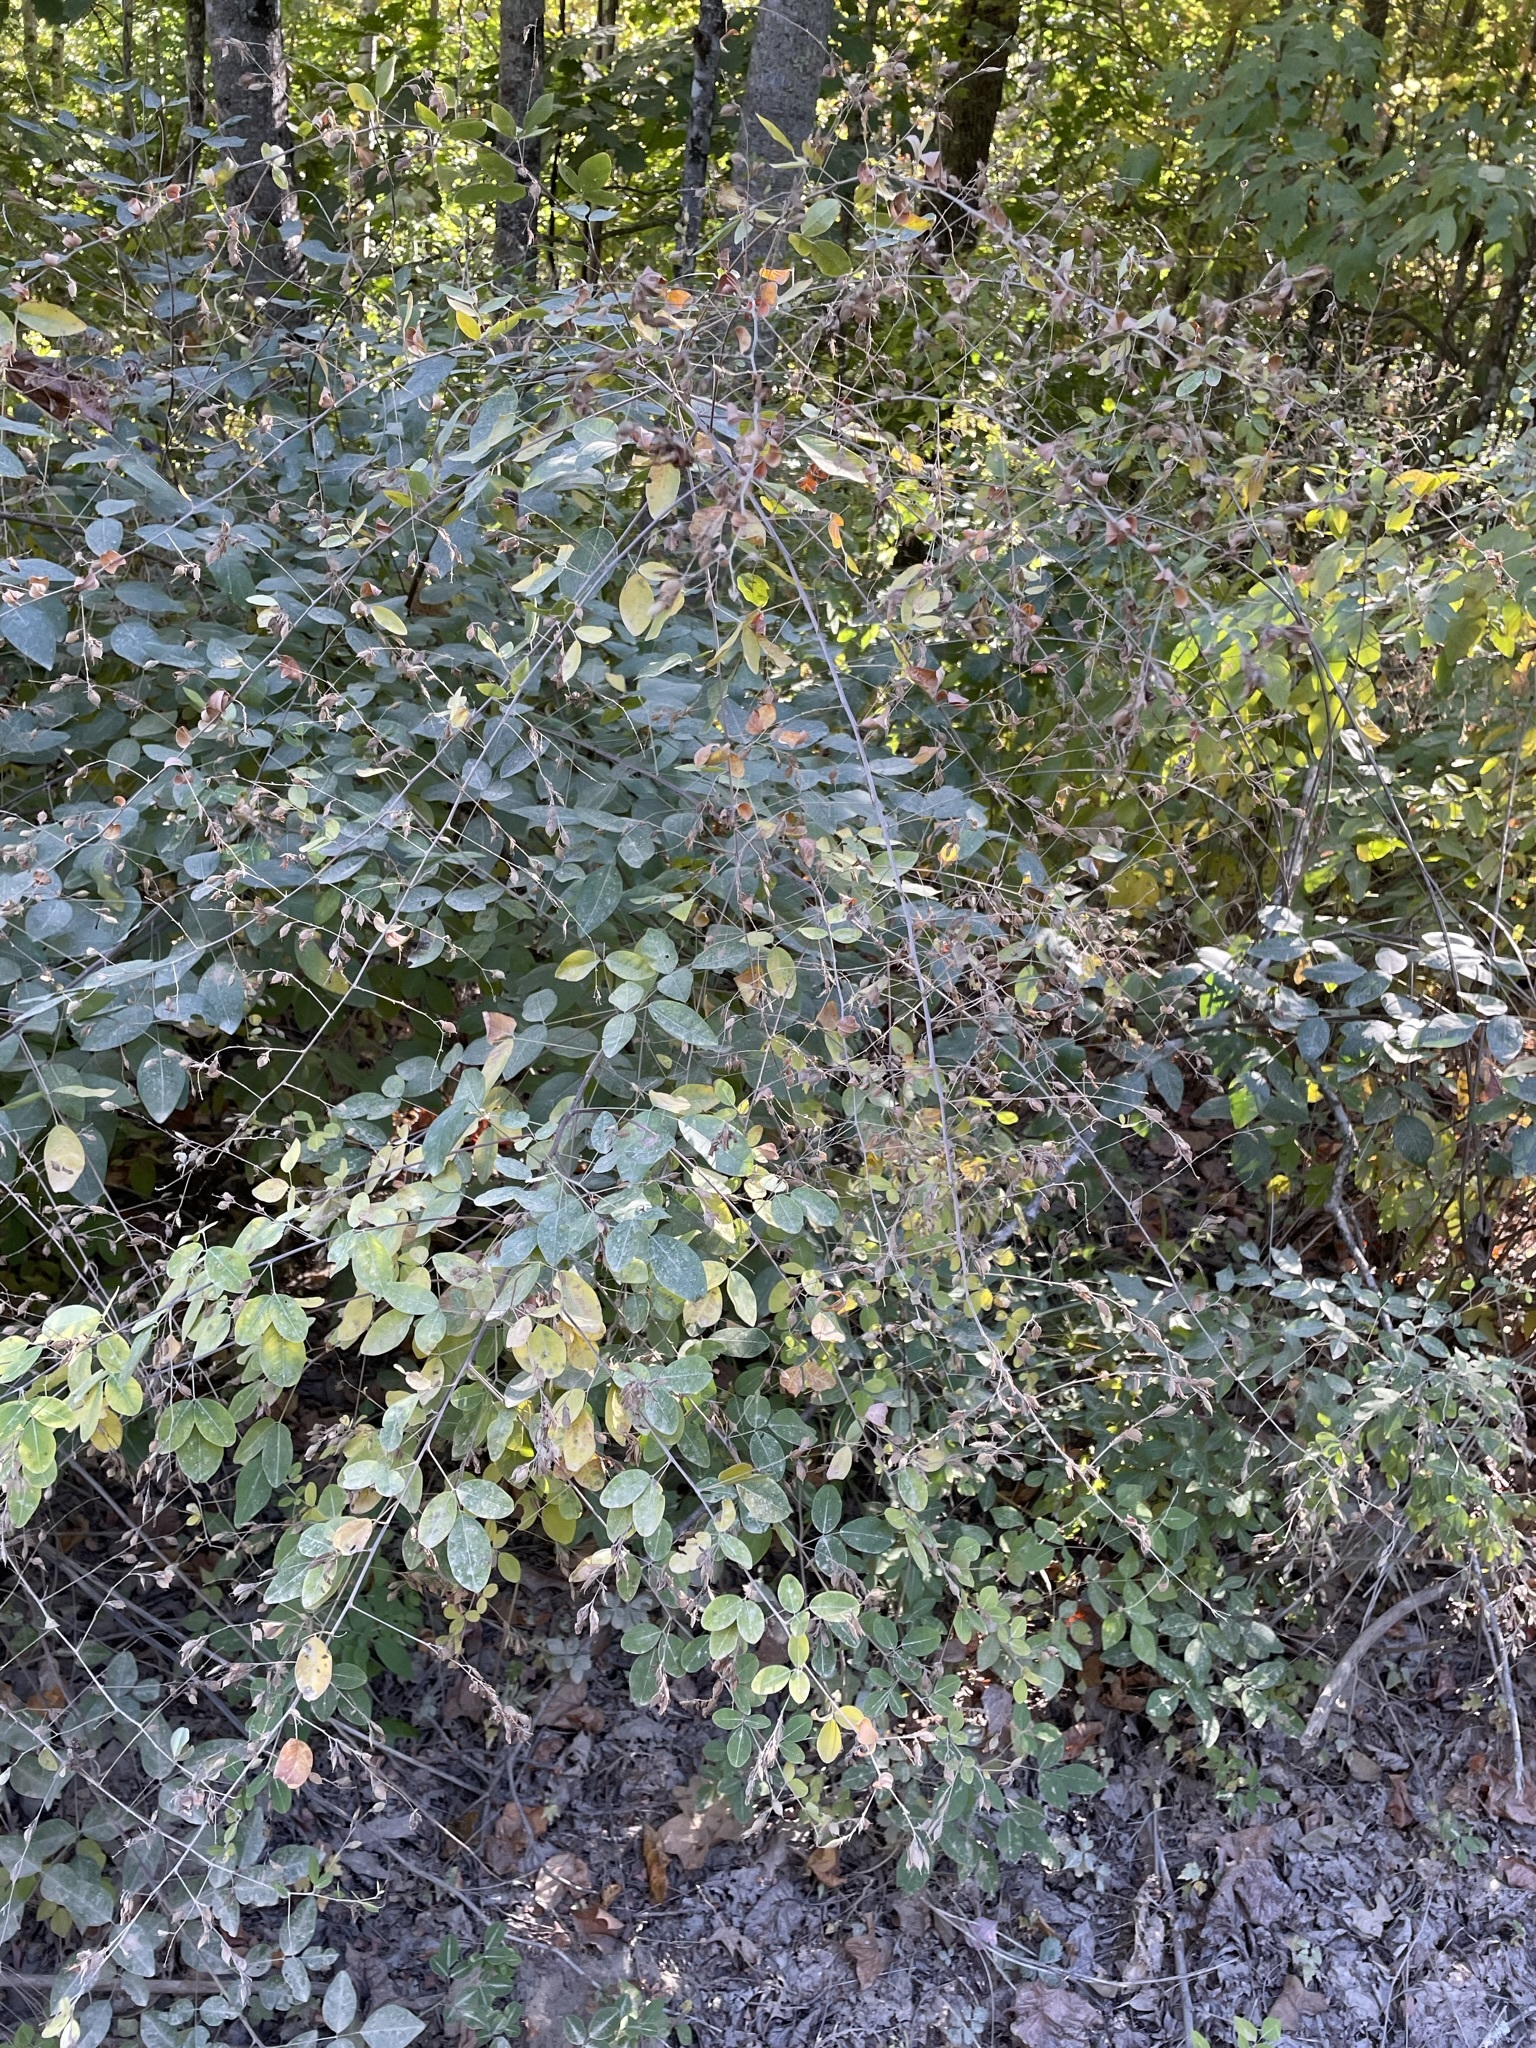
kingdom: Plantae
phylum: Tracheophyta
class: Magnoliopsida
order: Fabales
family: Fabaceae
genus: Lespedeza
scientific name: Lespedeza bicolor
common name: Shrub lespedeza
